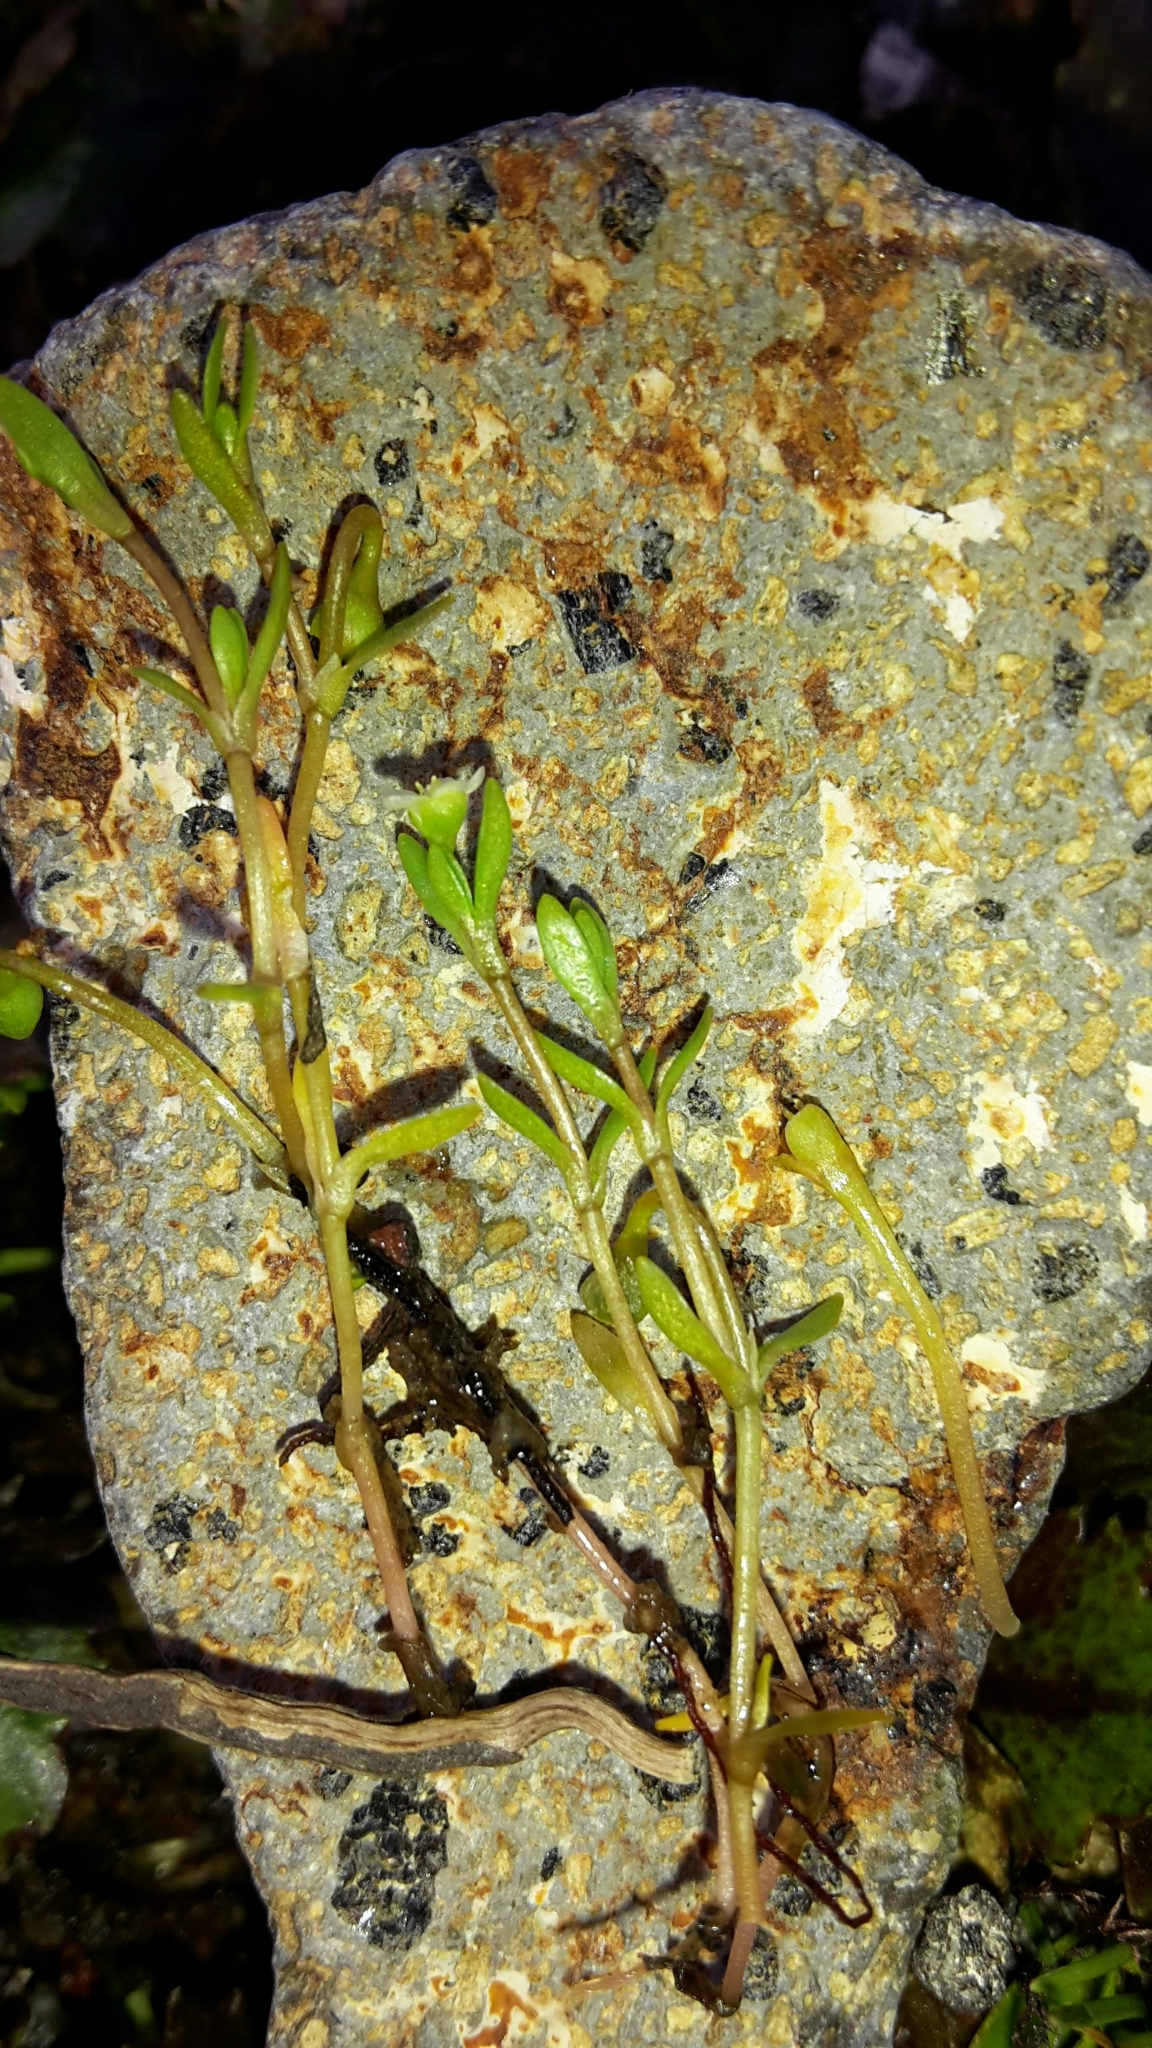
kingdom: Plantae
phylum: Tracheophyta
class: Magnoliopsida
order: Caryophyllales
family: Montiaceae
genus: Montia
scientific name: Montia fontana
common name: Blinks
